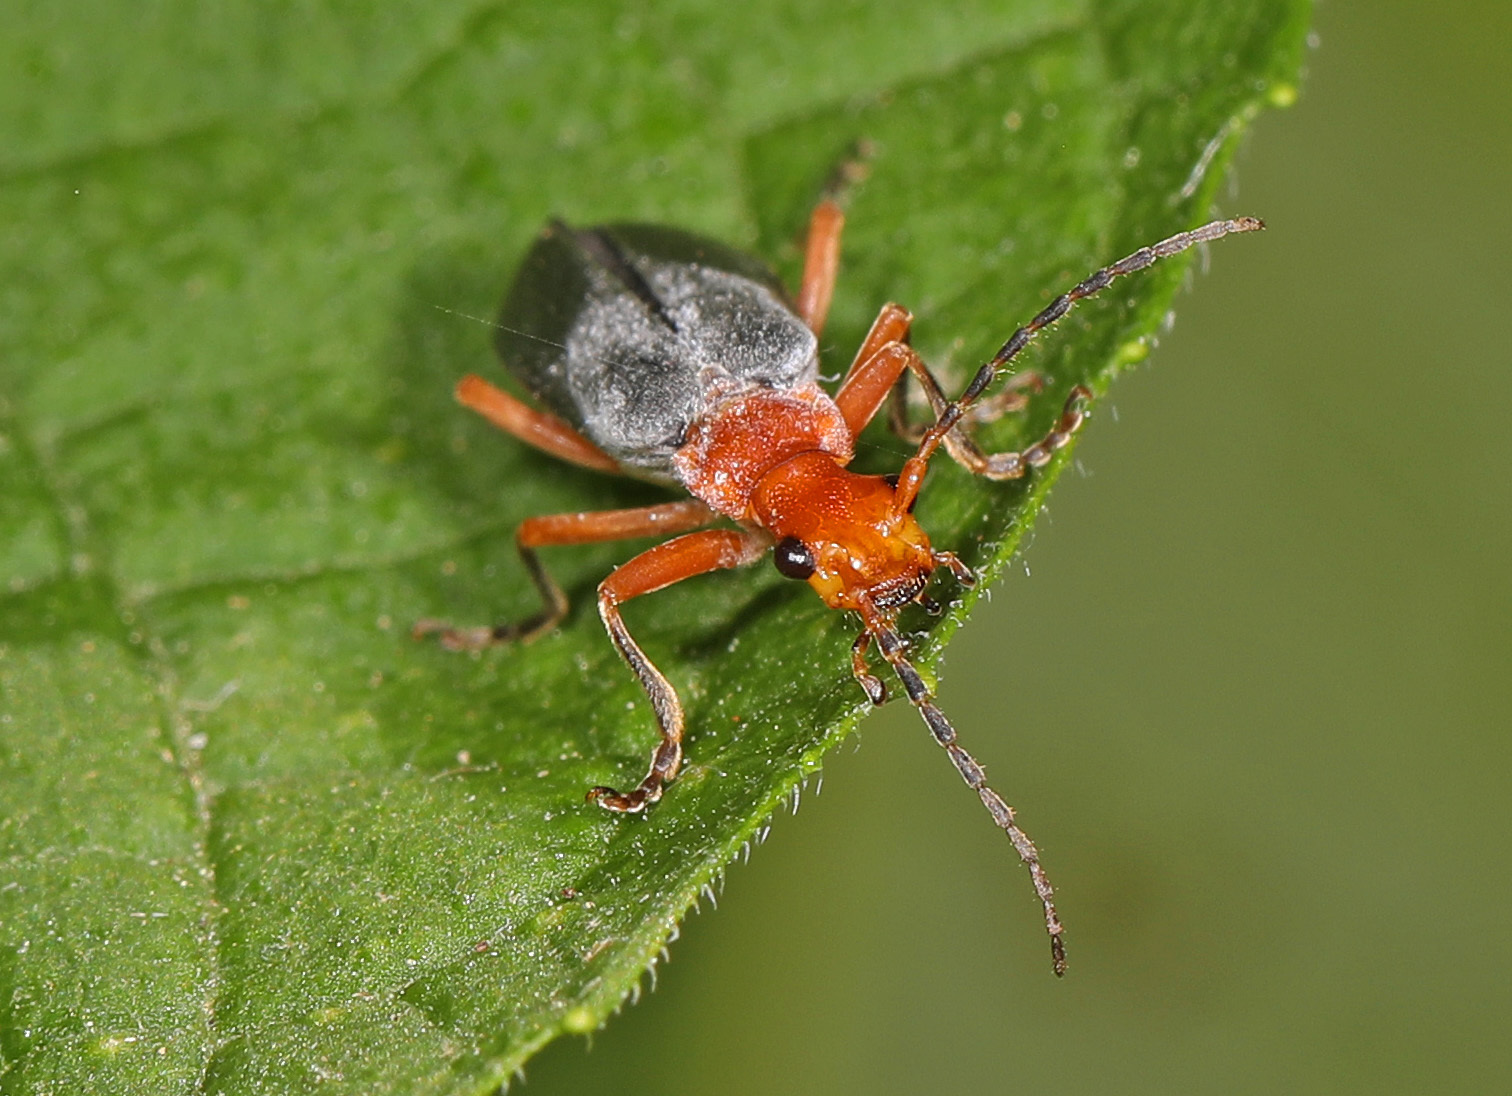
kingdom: Animalia
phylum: Arthropoda
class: Insecta
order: Coleoptera
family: Cantharidae
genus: Podabrus
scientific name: Podabrus tomentosus
